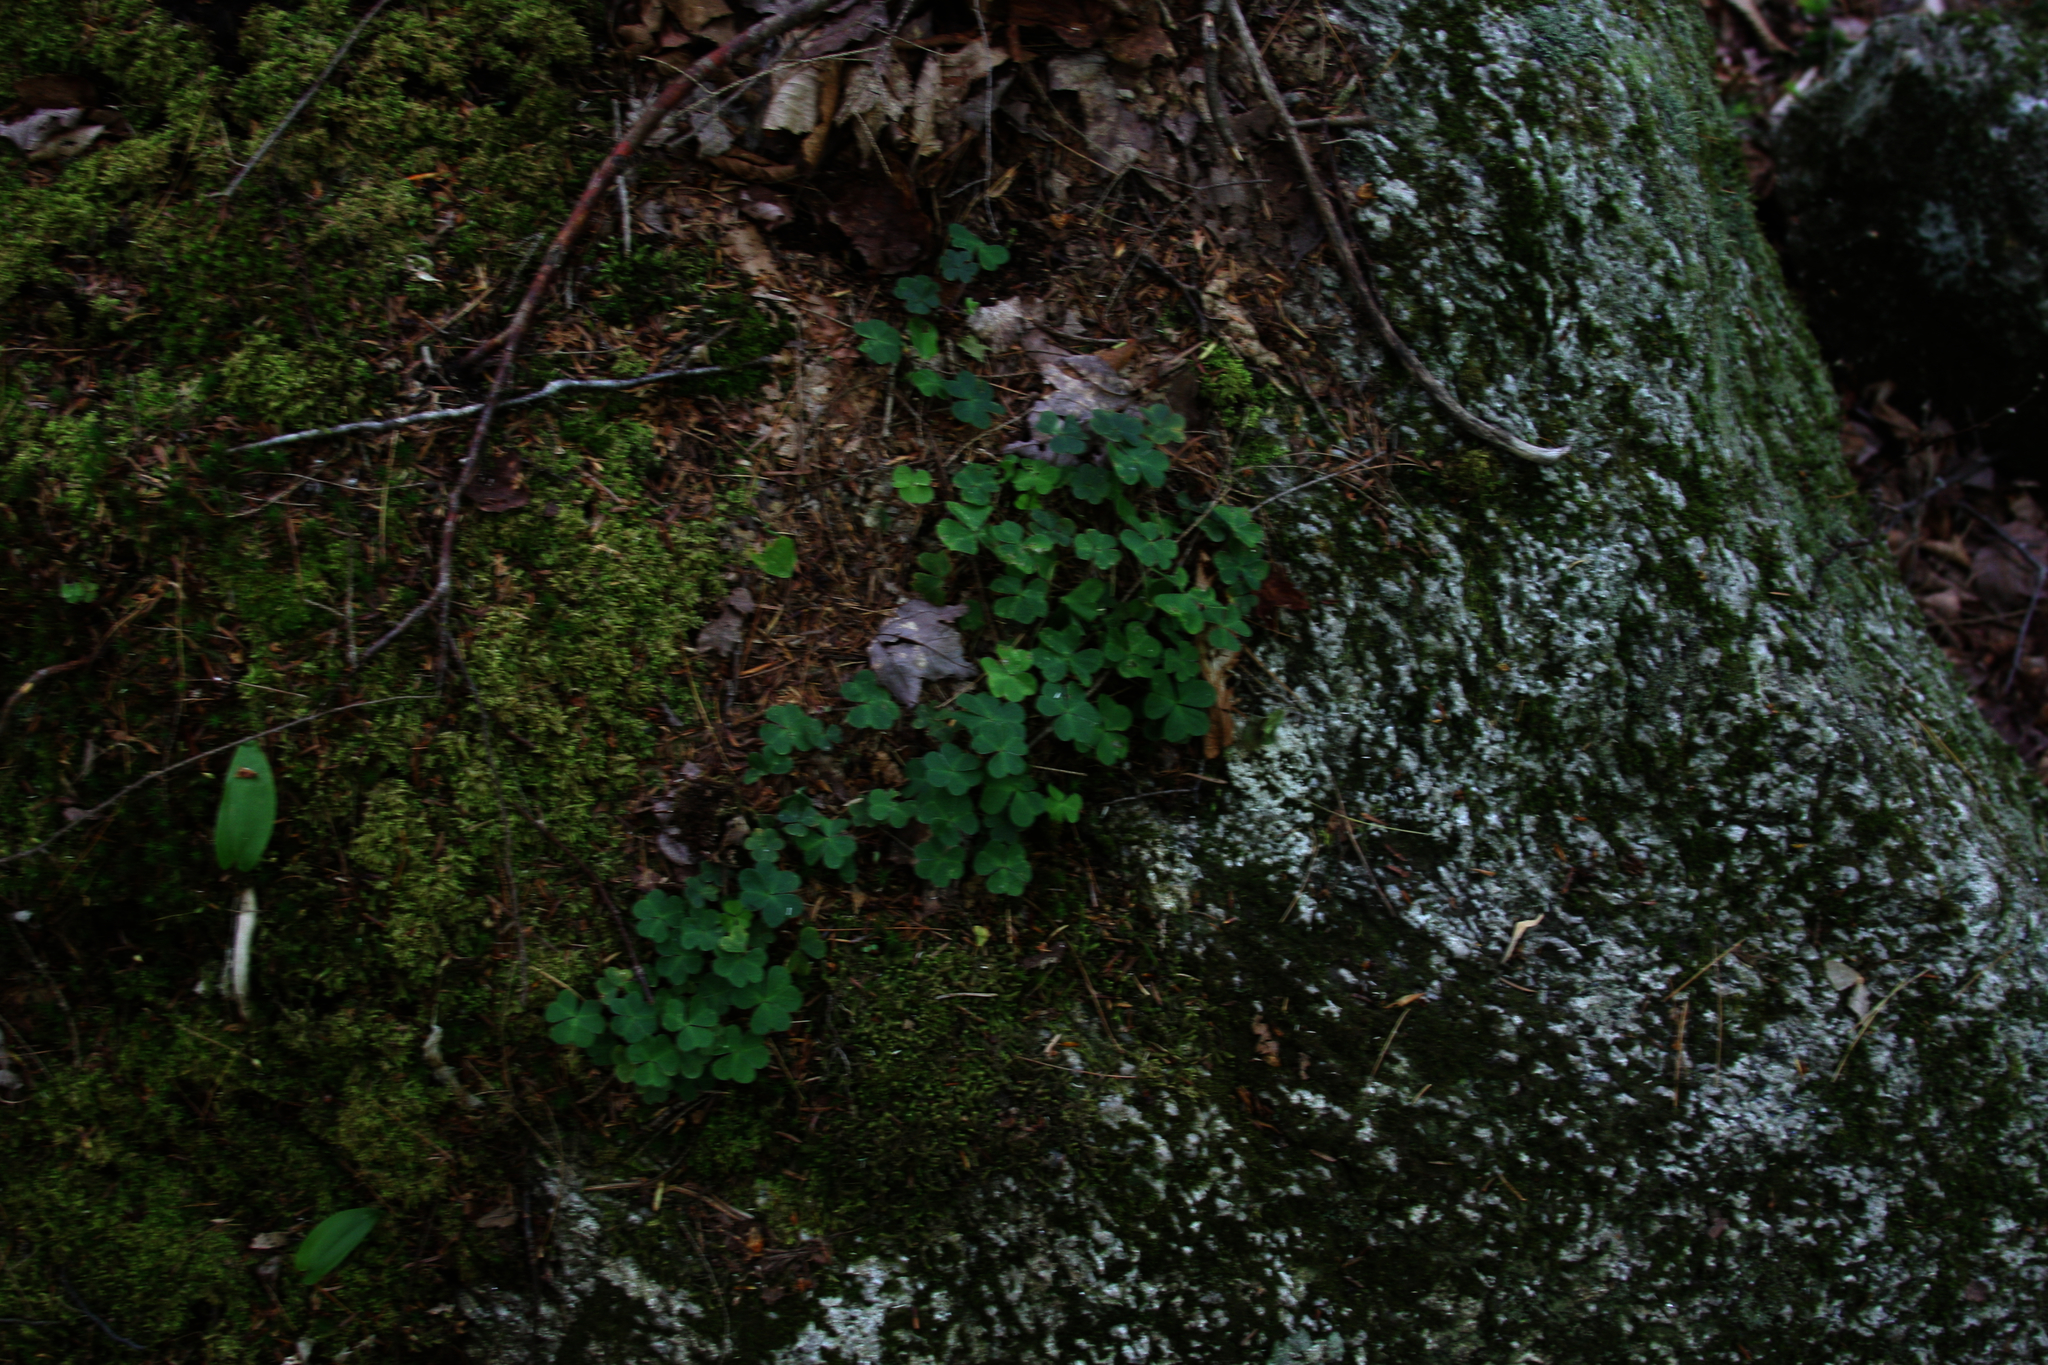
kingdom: Plantae
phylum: Tracheophyta
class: Magnoliopsida
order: Oxalidales
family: Oxalidaceae
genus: Oxalis
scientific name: Oxalis montana
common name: American wood-sorrel
